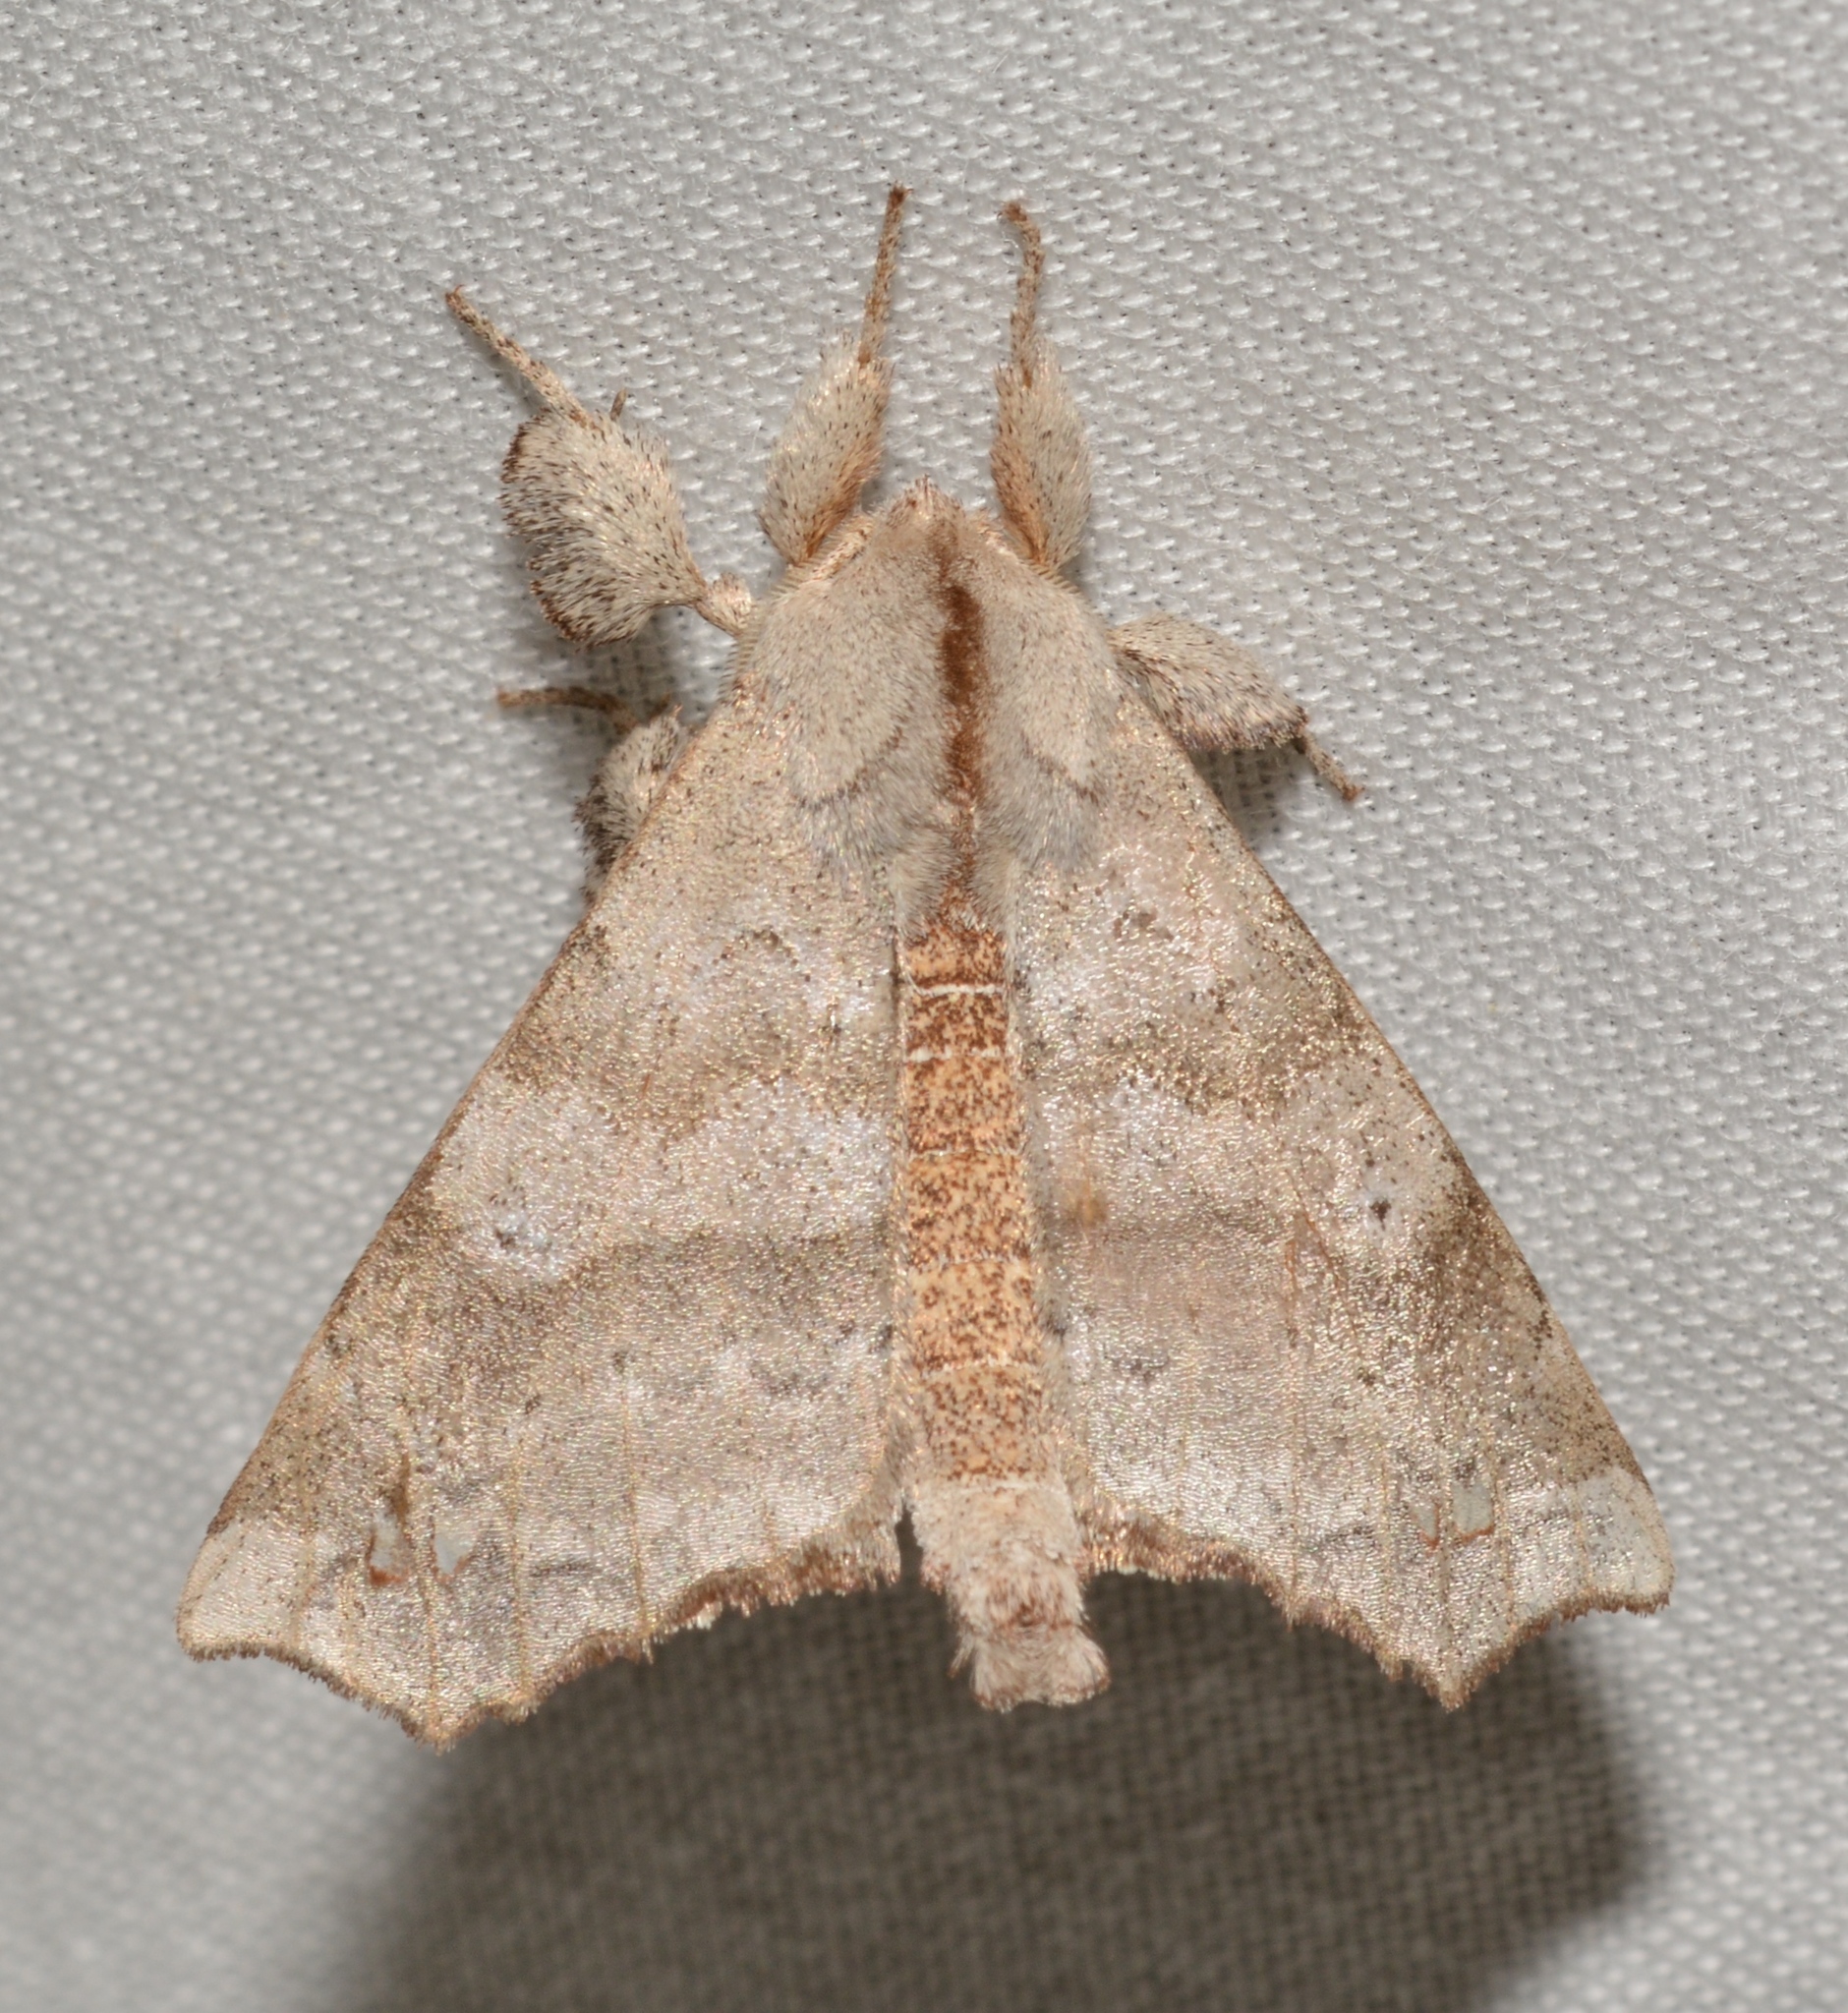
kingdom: Animalia
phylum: Arthropoda
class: Insecta
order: Lepidoptera
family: Apatelodidae
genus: Olceclostera
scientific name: Olceclostera angelica
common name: Angel moth
